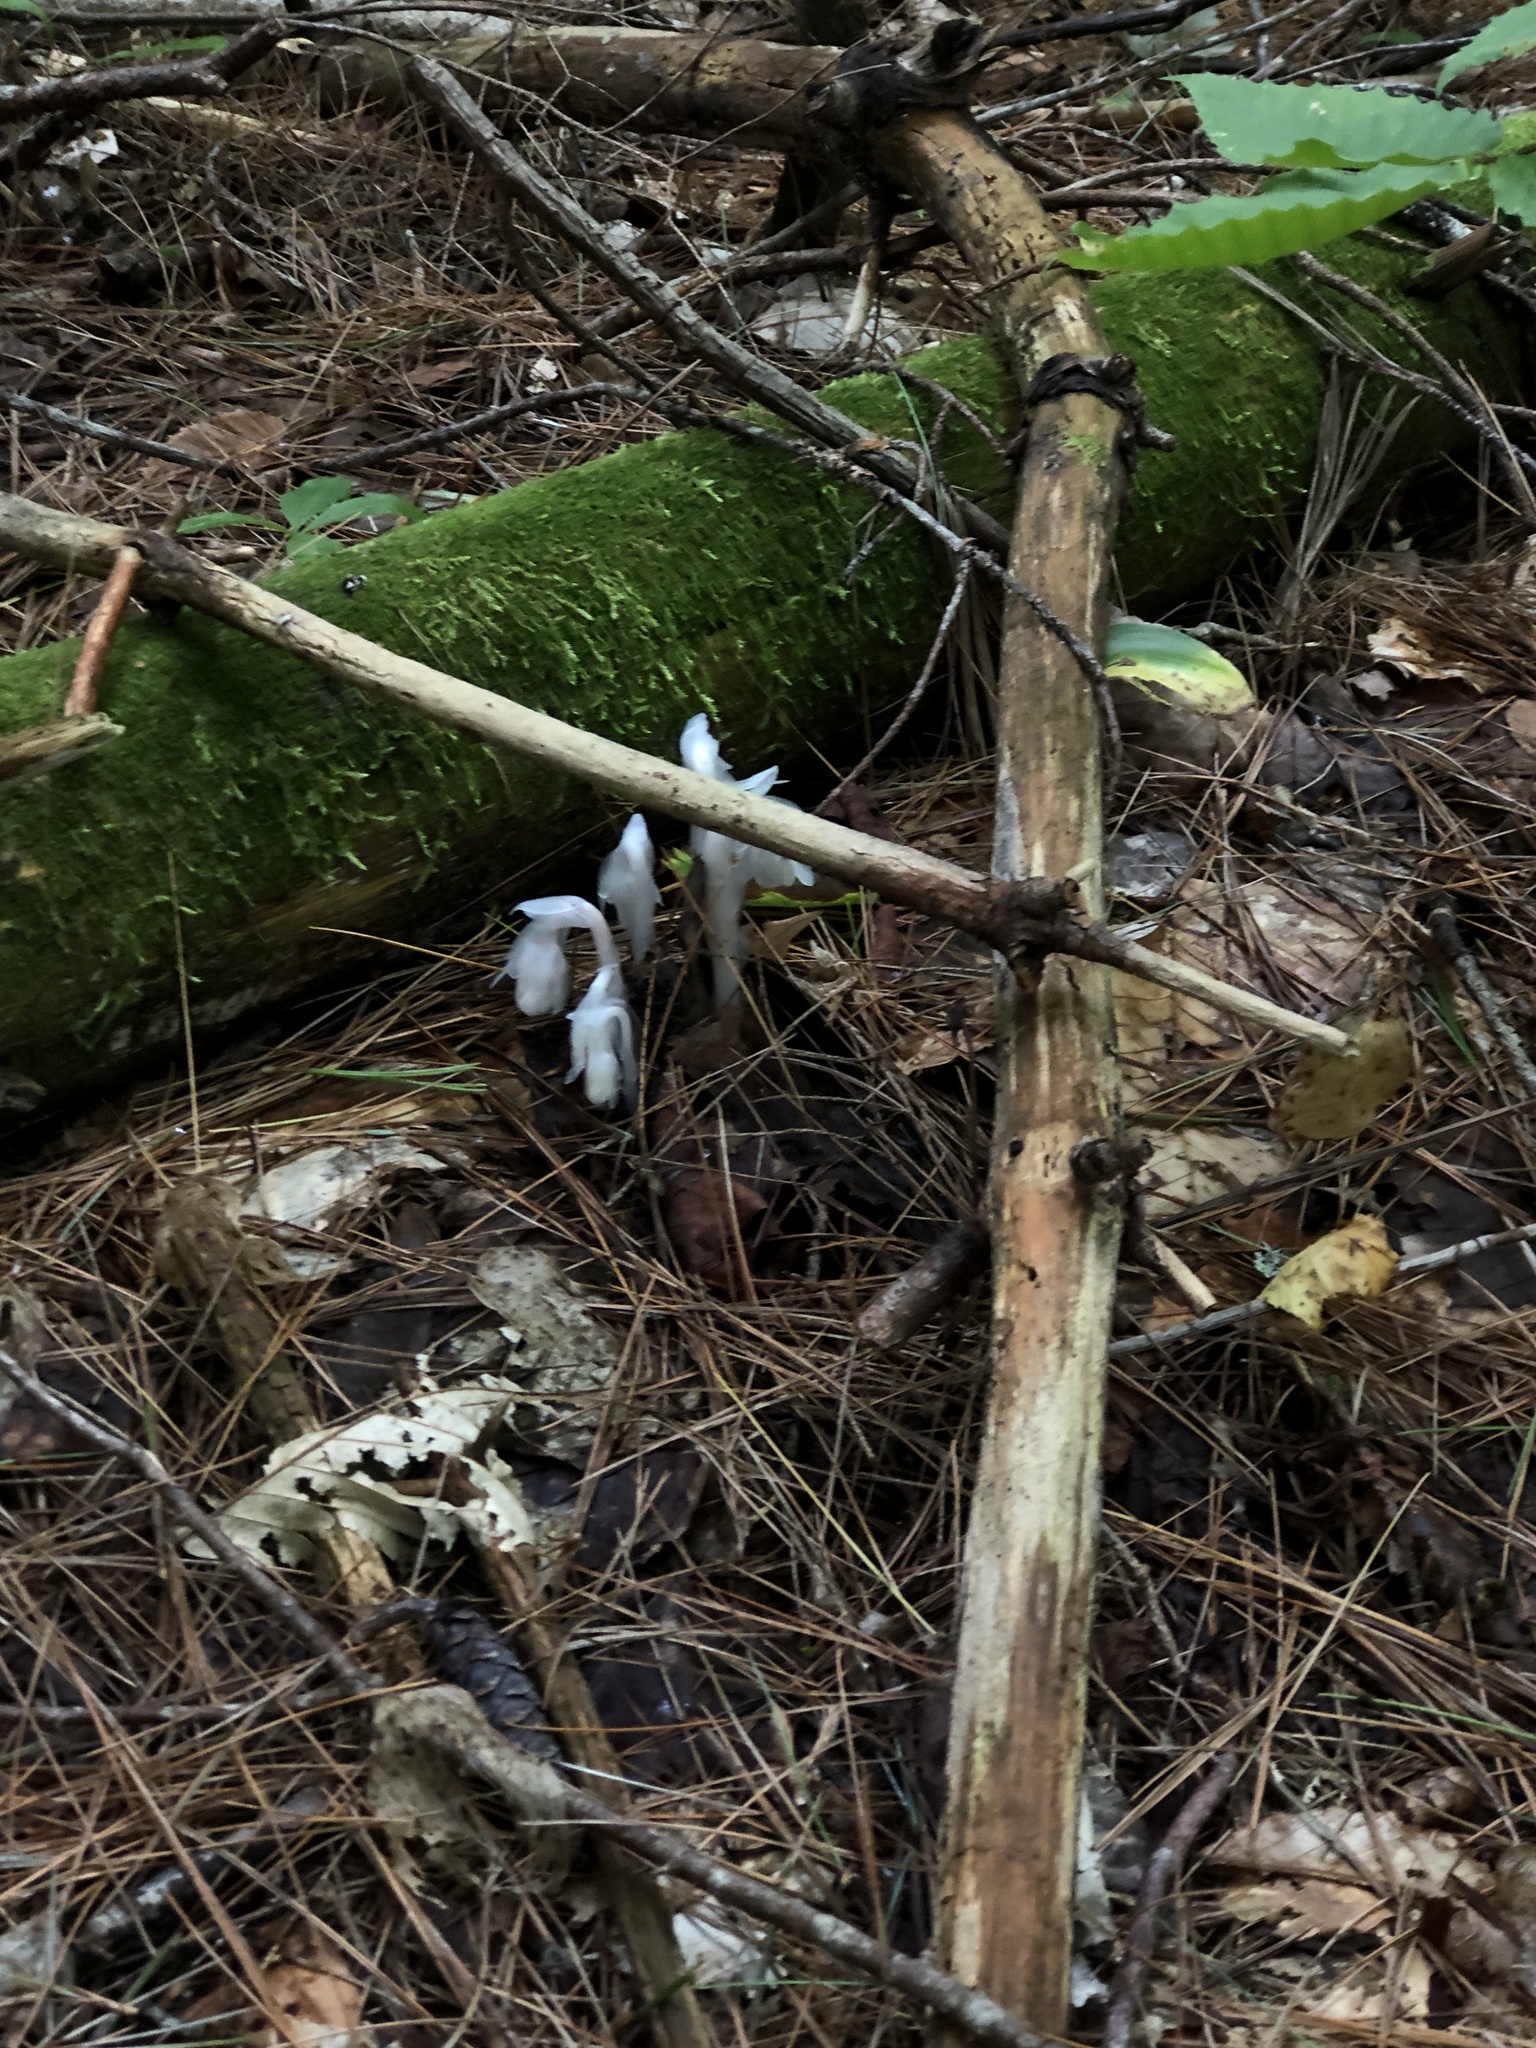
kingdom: Plantae
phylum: Tracheophyta
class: Magnoliopsida
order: Ericales
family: Ericaceae
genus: Monotropa
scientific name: Monotropa uniflora
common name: Convulsion root
